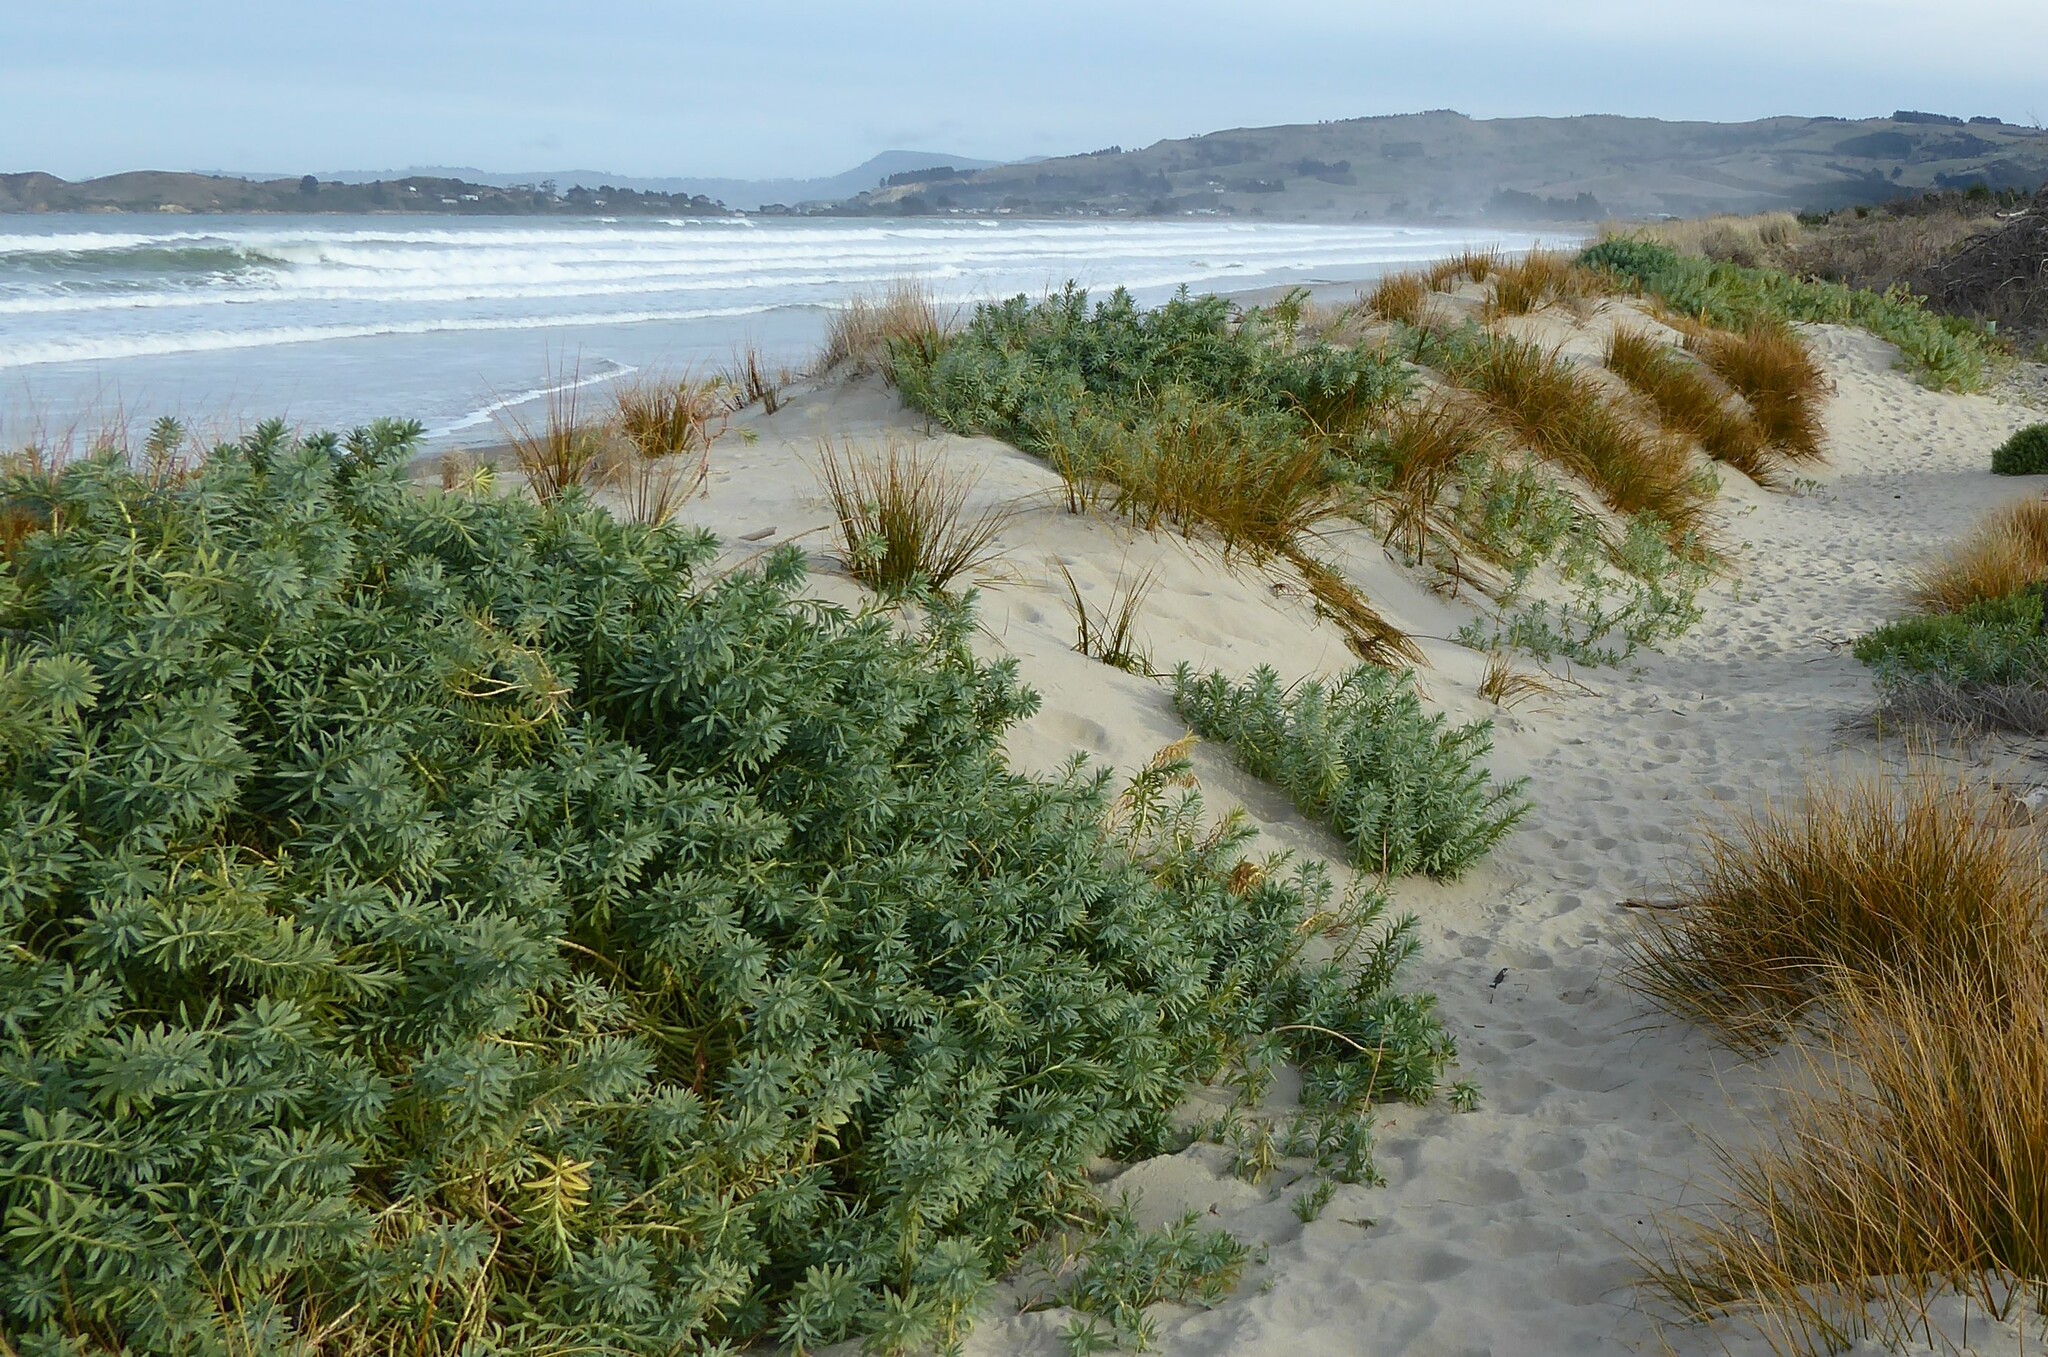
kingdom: Plantae
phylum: Tracheophyta
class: Magnoliopsida
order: Malpighiales
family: Euphorbiaceae
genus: Euphorbia
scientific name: Euphorbia glauca
